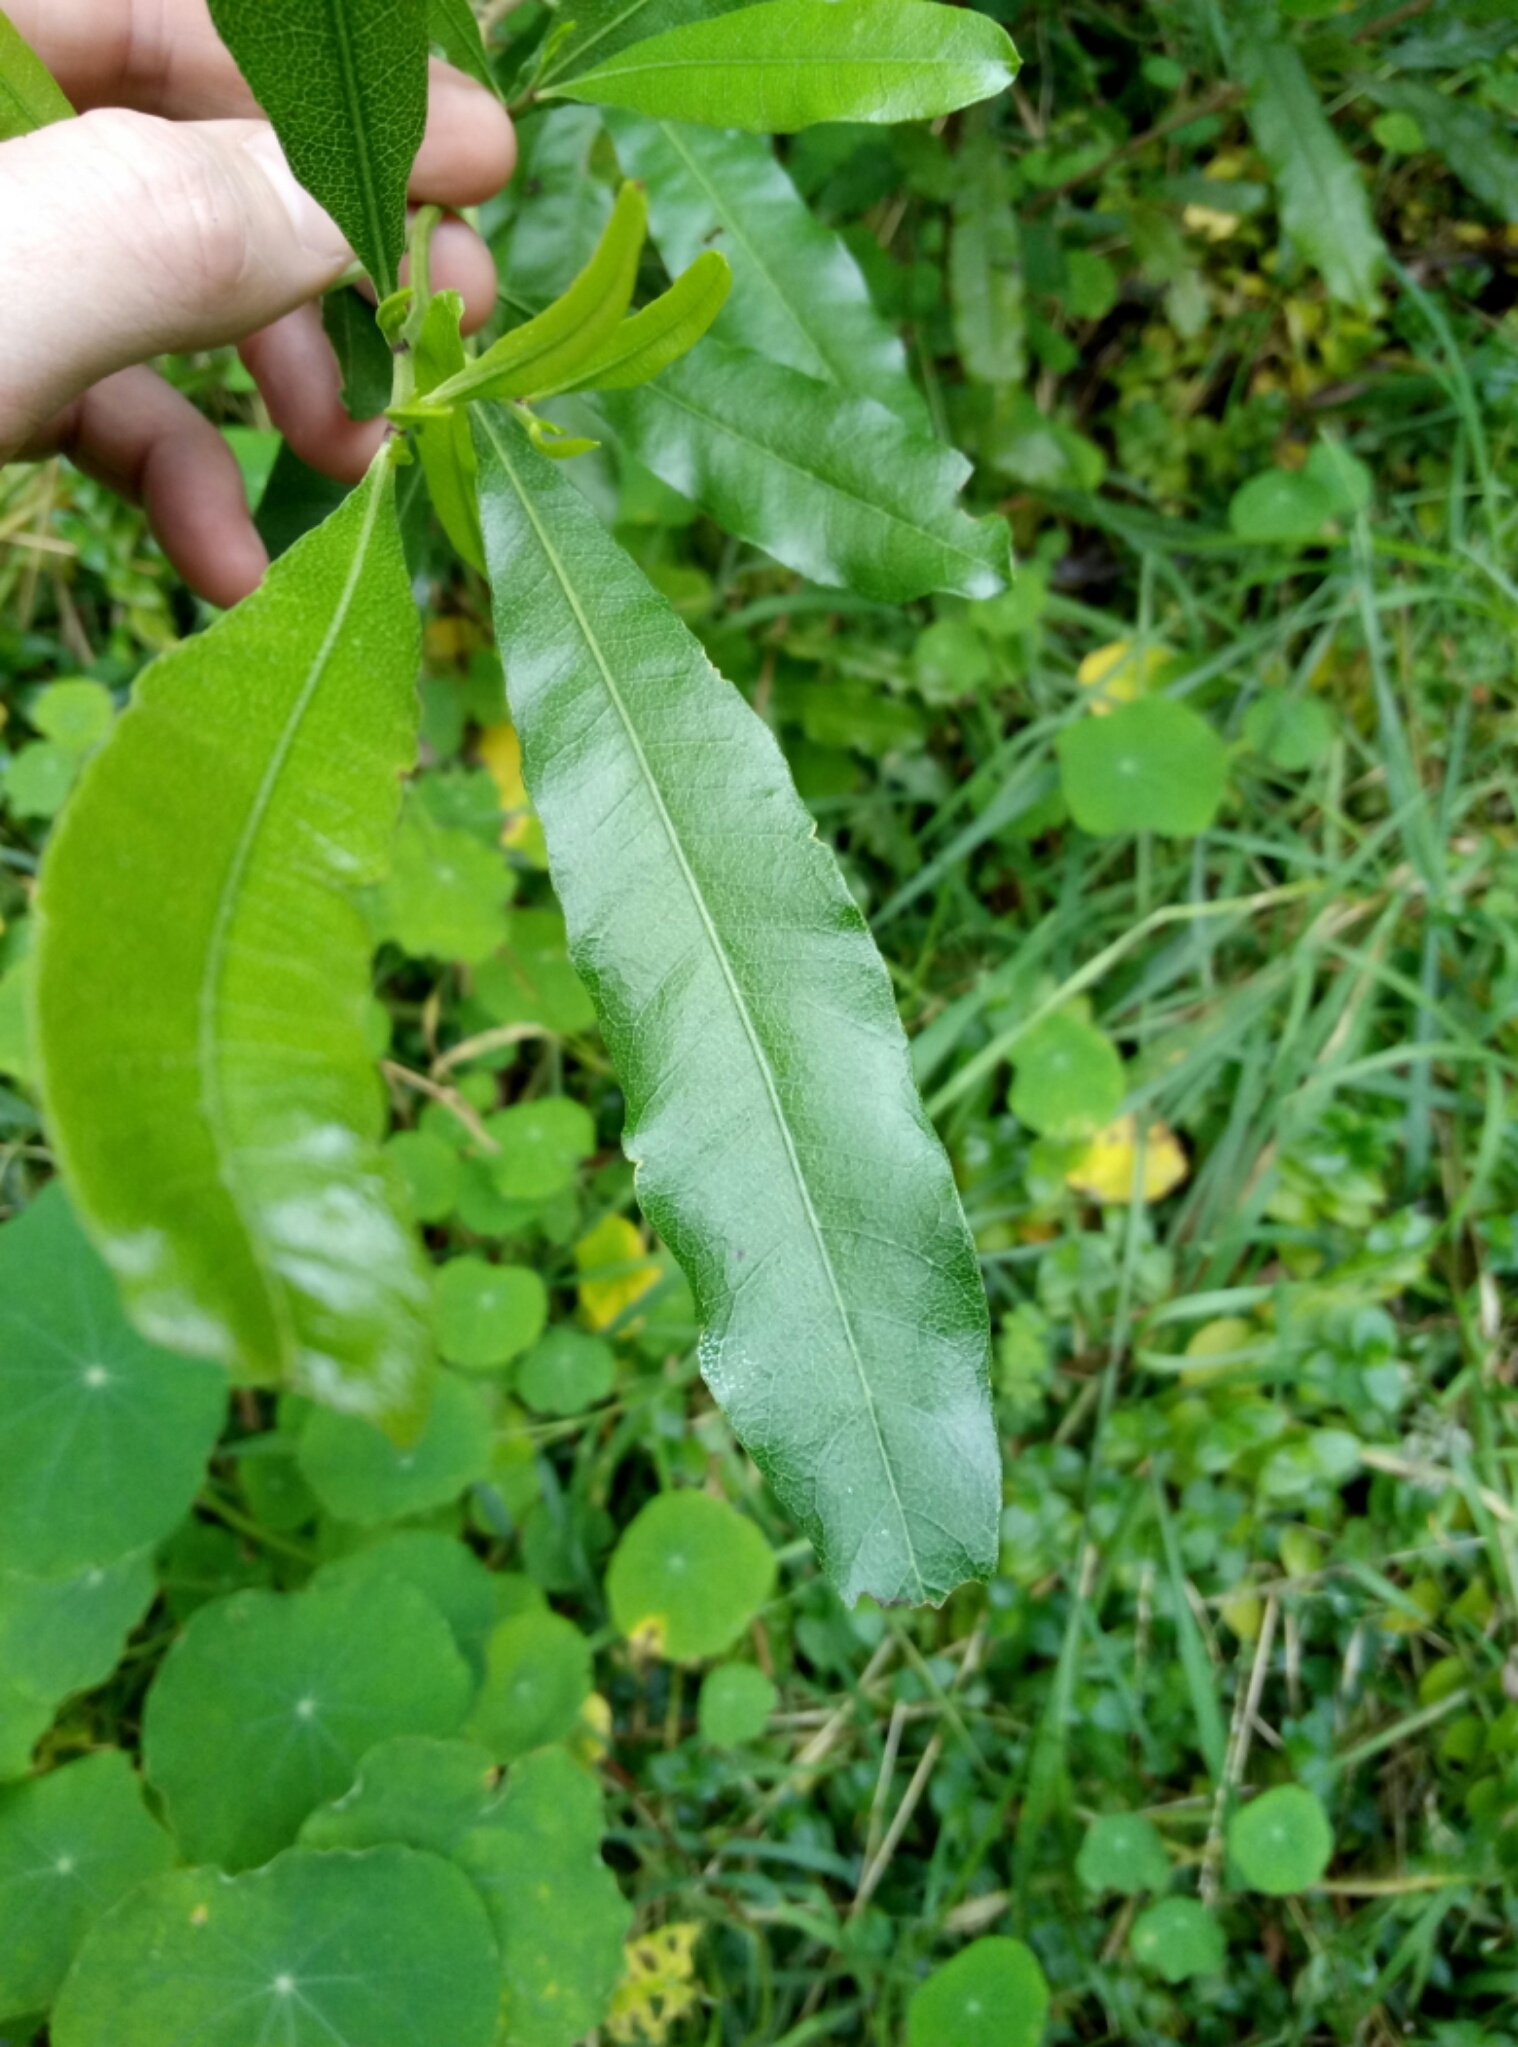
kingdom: Plantae
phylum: Tracheophyta
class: Magnoliopsida
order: Sapindales
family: Sapindaceae
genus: Dodonaea
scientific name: Dodonaea viscosa
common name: Hopbush
